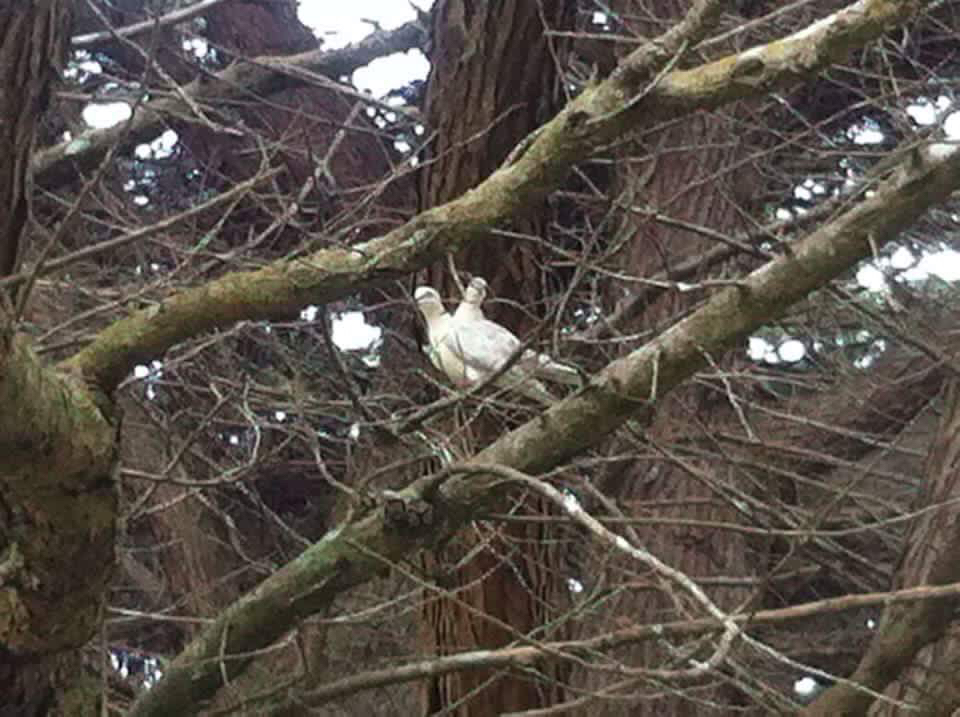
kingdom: Animalia
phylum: Chordata
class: Aves
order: Columbiformes
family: Columbidae
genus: Streptopelia
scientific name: Streptopelia roseogrisea
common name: African collared dove
